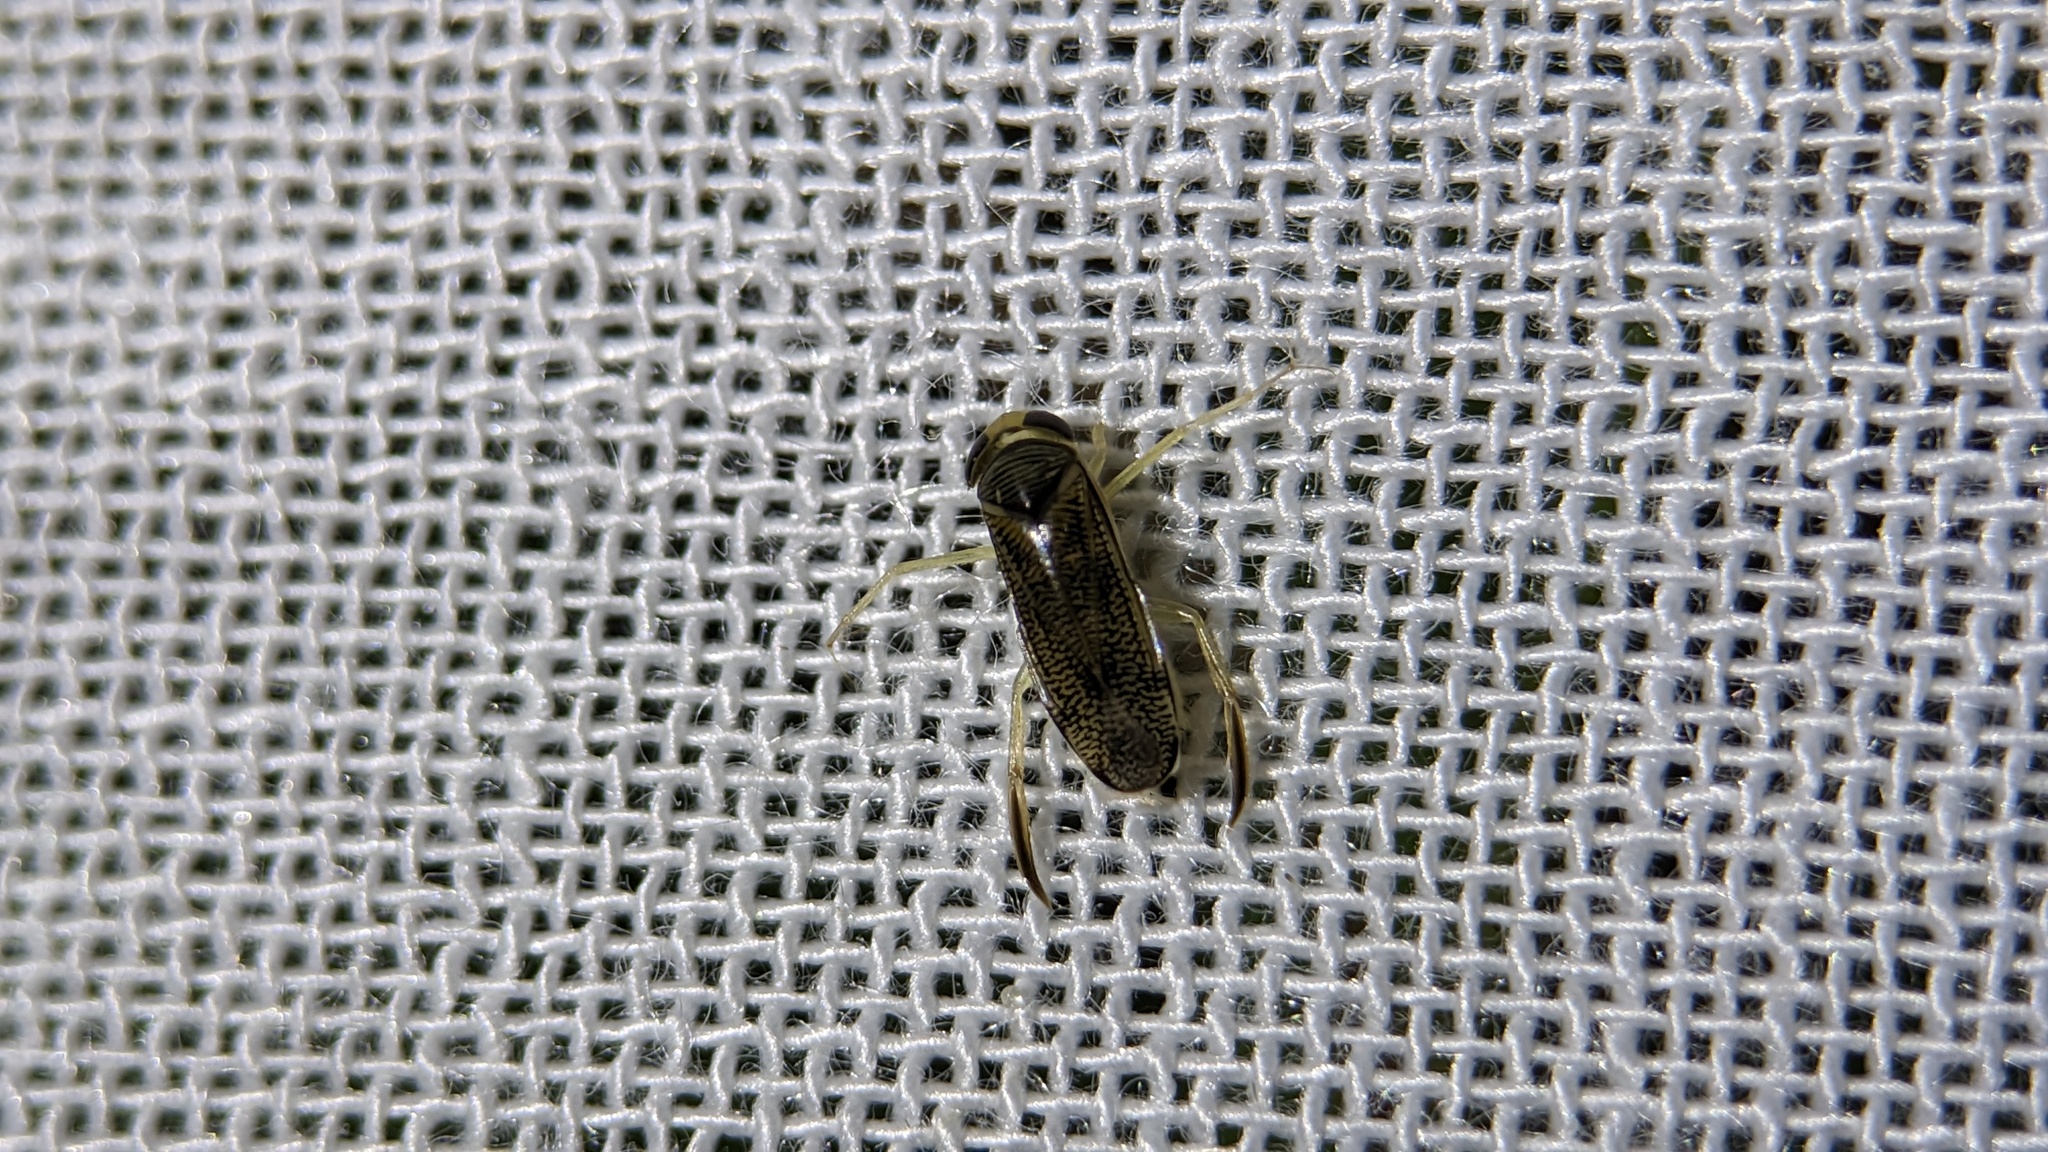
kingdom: Animalia
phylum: Arthropoda
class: Insecta
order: Hemiptera
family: Corixidae
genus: Trichocorixa
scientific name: Trichocorixa
